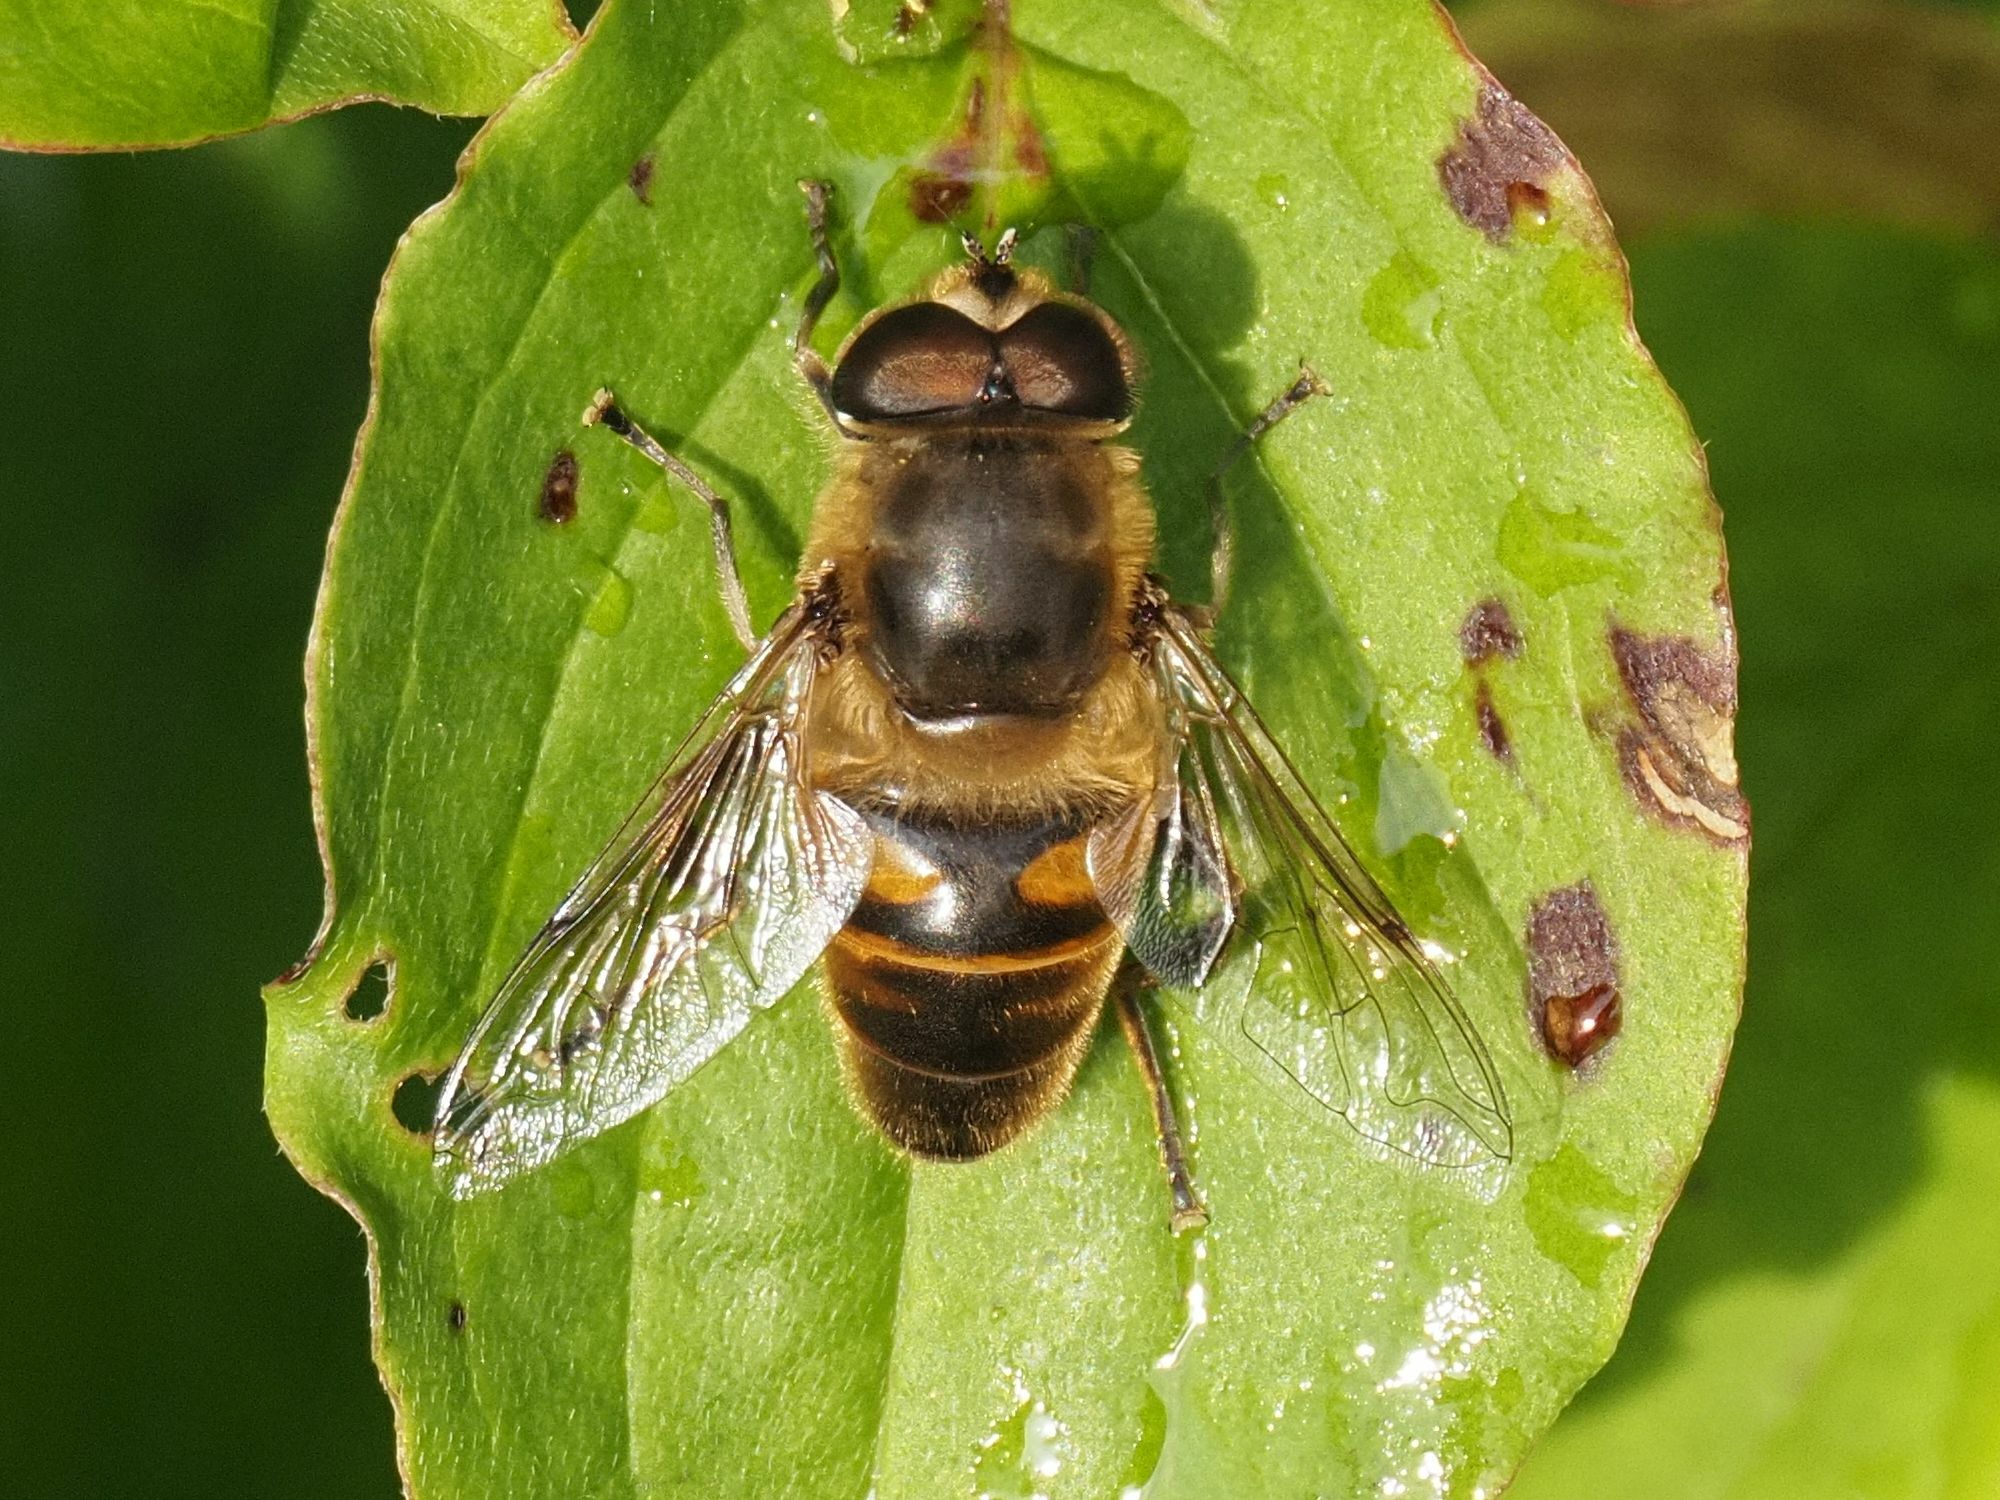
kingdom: Animalia
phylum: Arthropoda
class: Insecta
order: Diptera
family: Syrphidae
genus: Eristalis
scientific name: Eristalis tenax
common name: Drone fly
